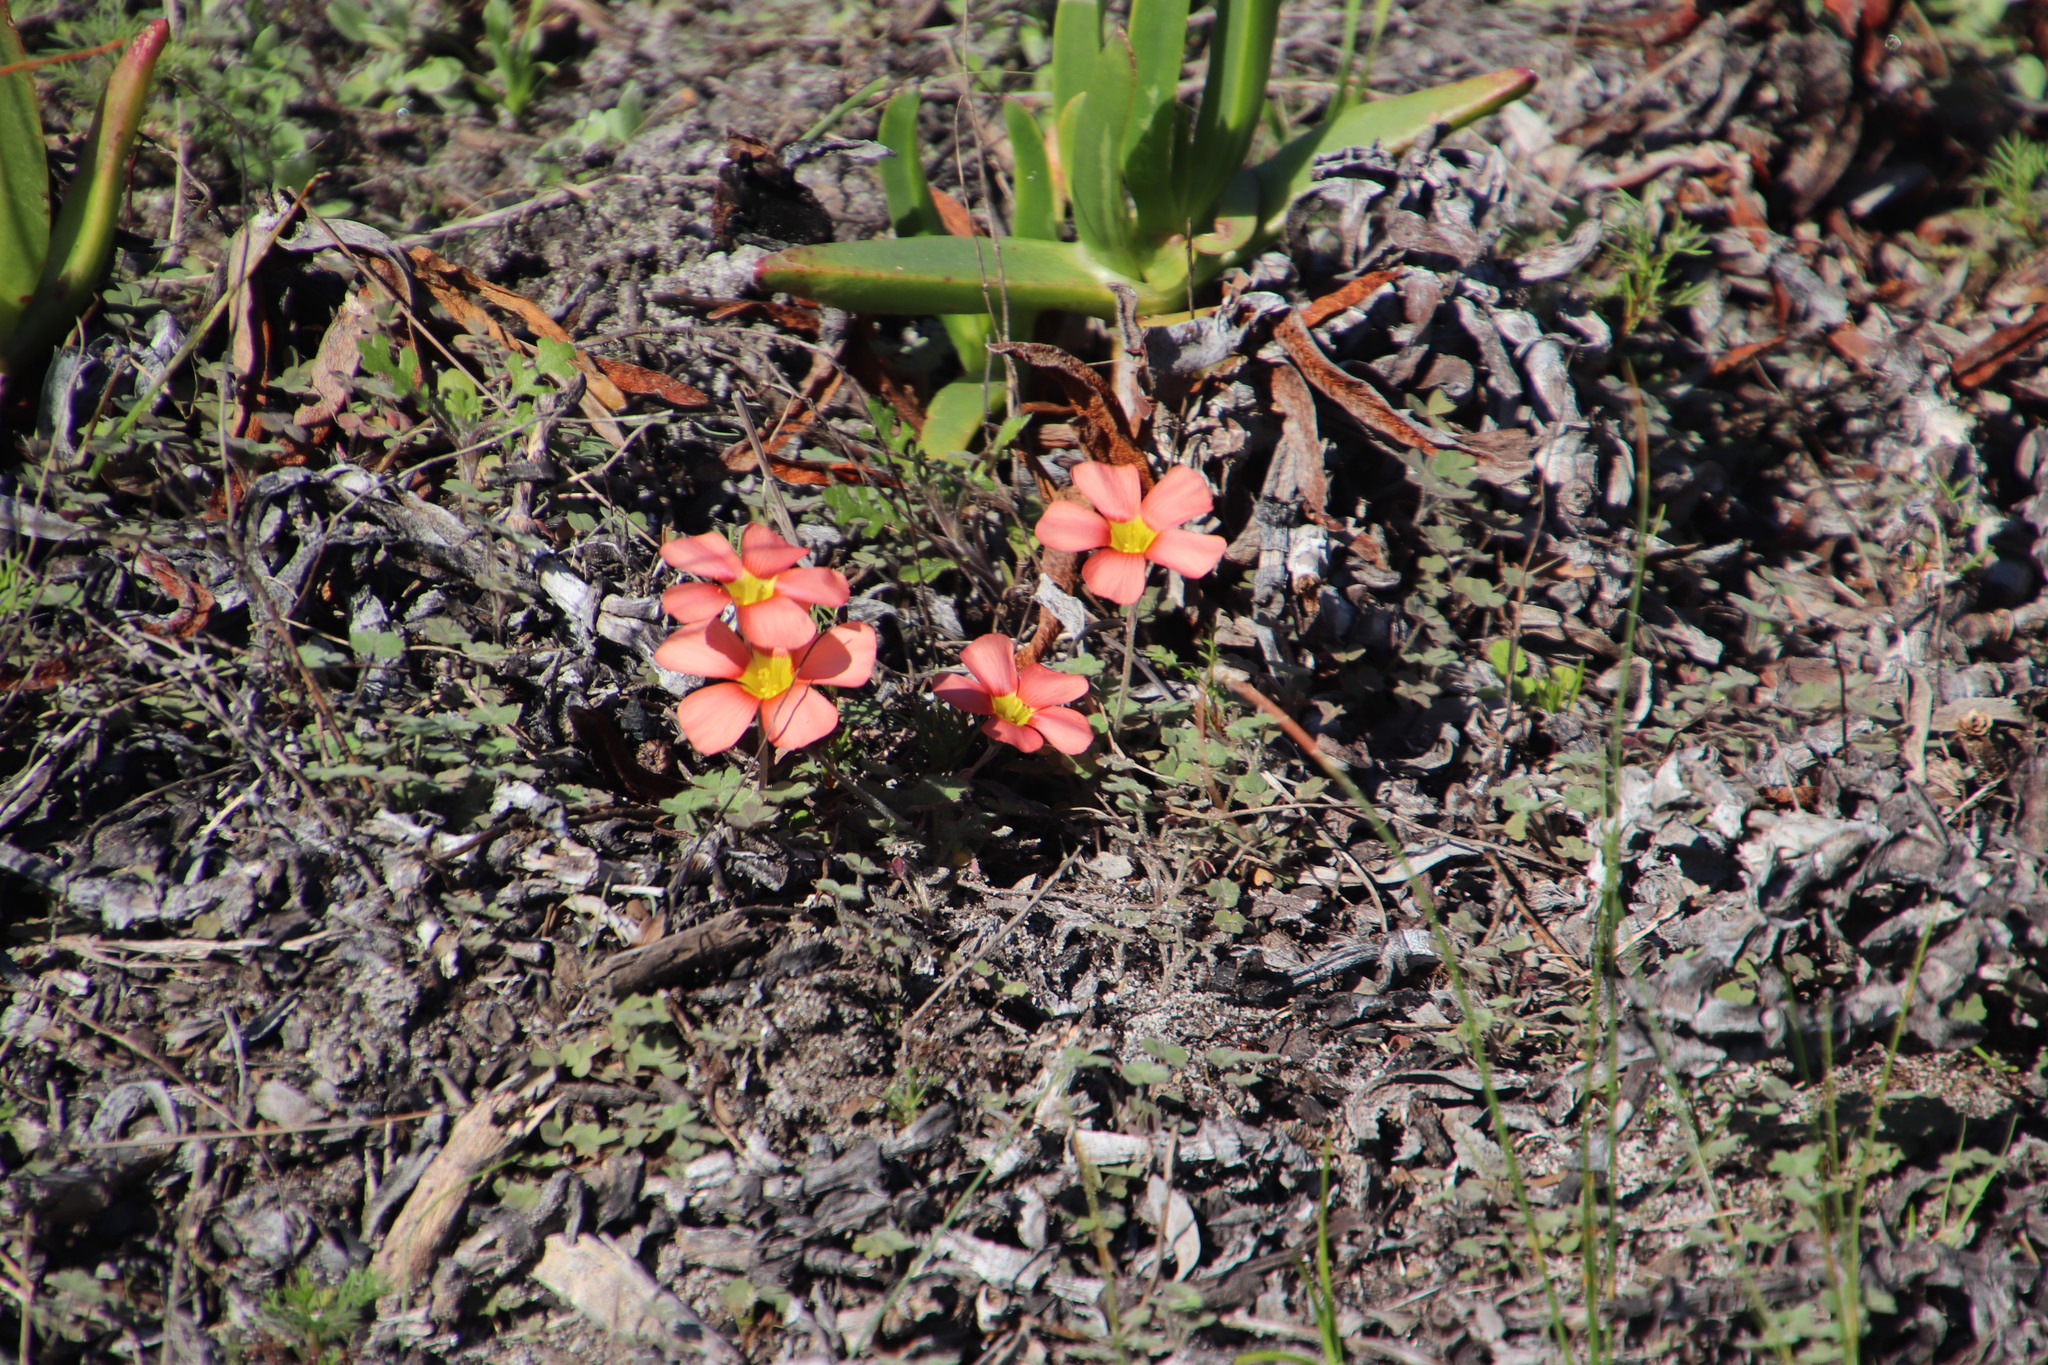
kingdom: Plantae
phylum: Tracheophyta
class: Magnoliopsida
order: Oxalidales
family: Oxalidaceae
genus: Oxalis
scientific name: Oxalis obtusa
